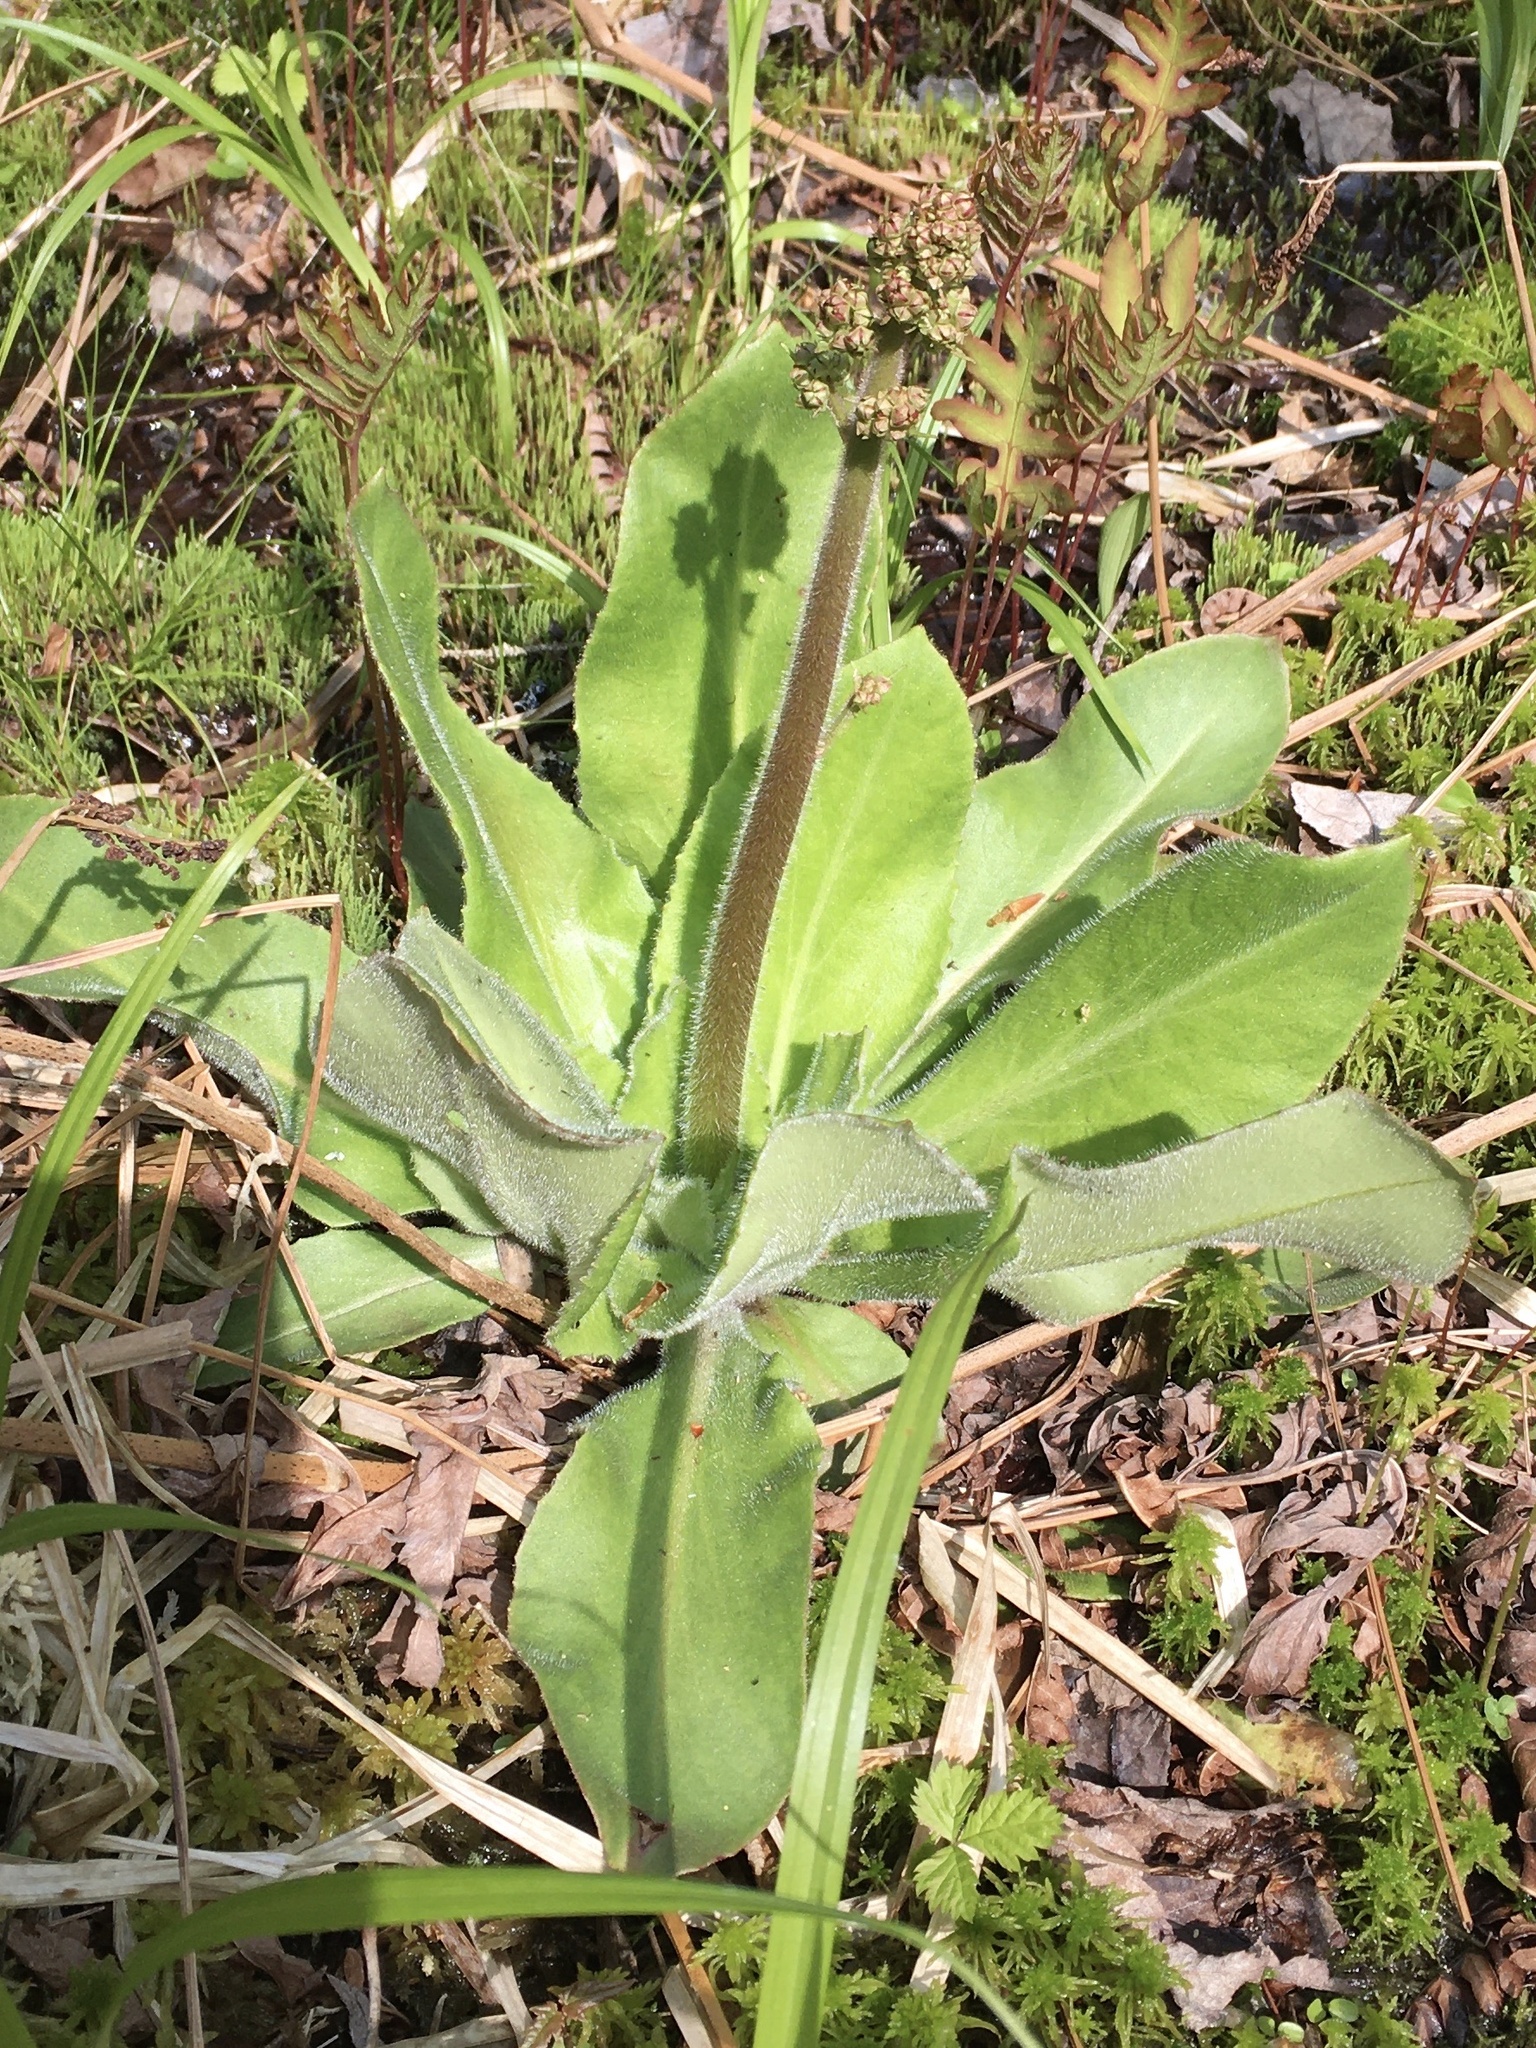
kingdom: Plantae
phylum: Tracheophyta
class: Magnoliopsida
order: Saxifragales
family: Saxifragaceae
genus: Micranthes
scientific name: Micranthes pensylvanica
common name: Marsh saxifrage
